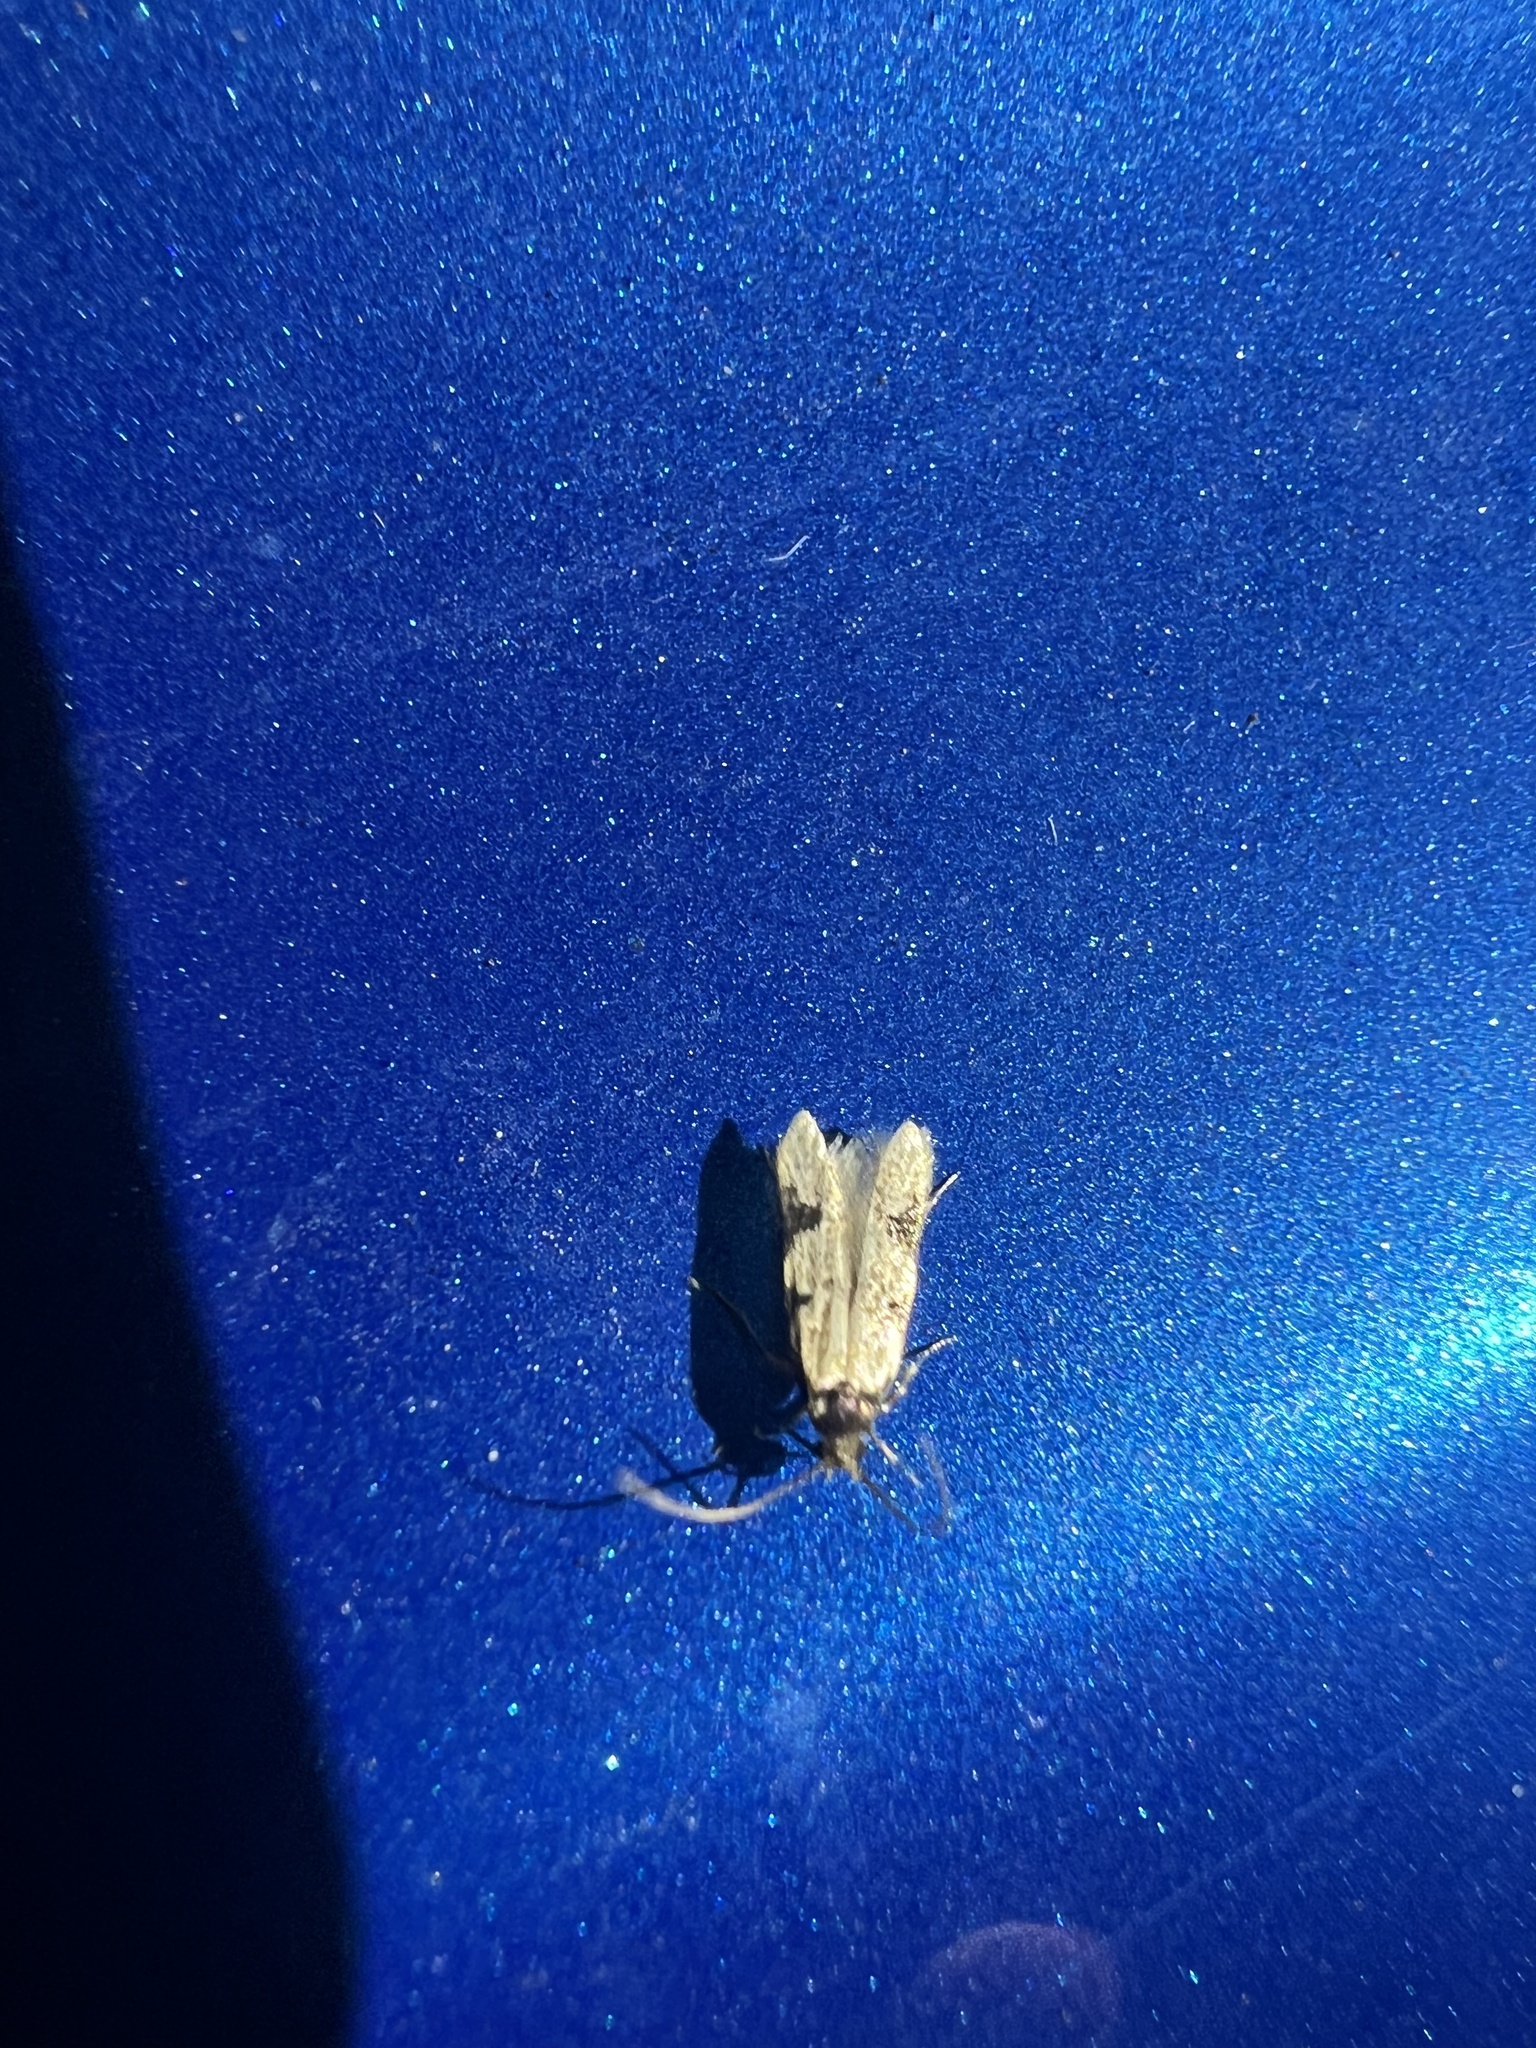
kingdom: Animalia
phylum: Arthropoda
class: Insecta
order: Lepidoptera
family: Autostichidae
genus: Taygete
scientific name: Taygete decemmaculella
